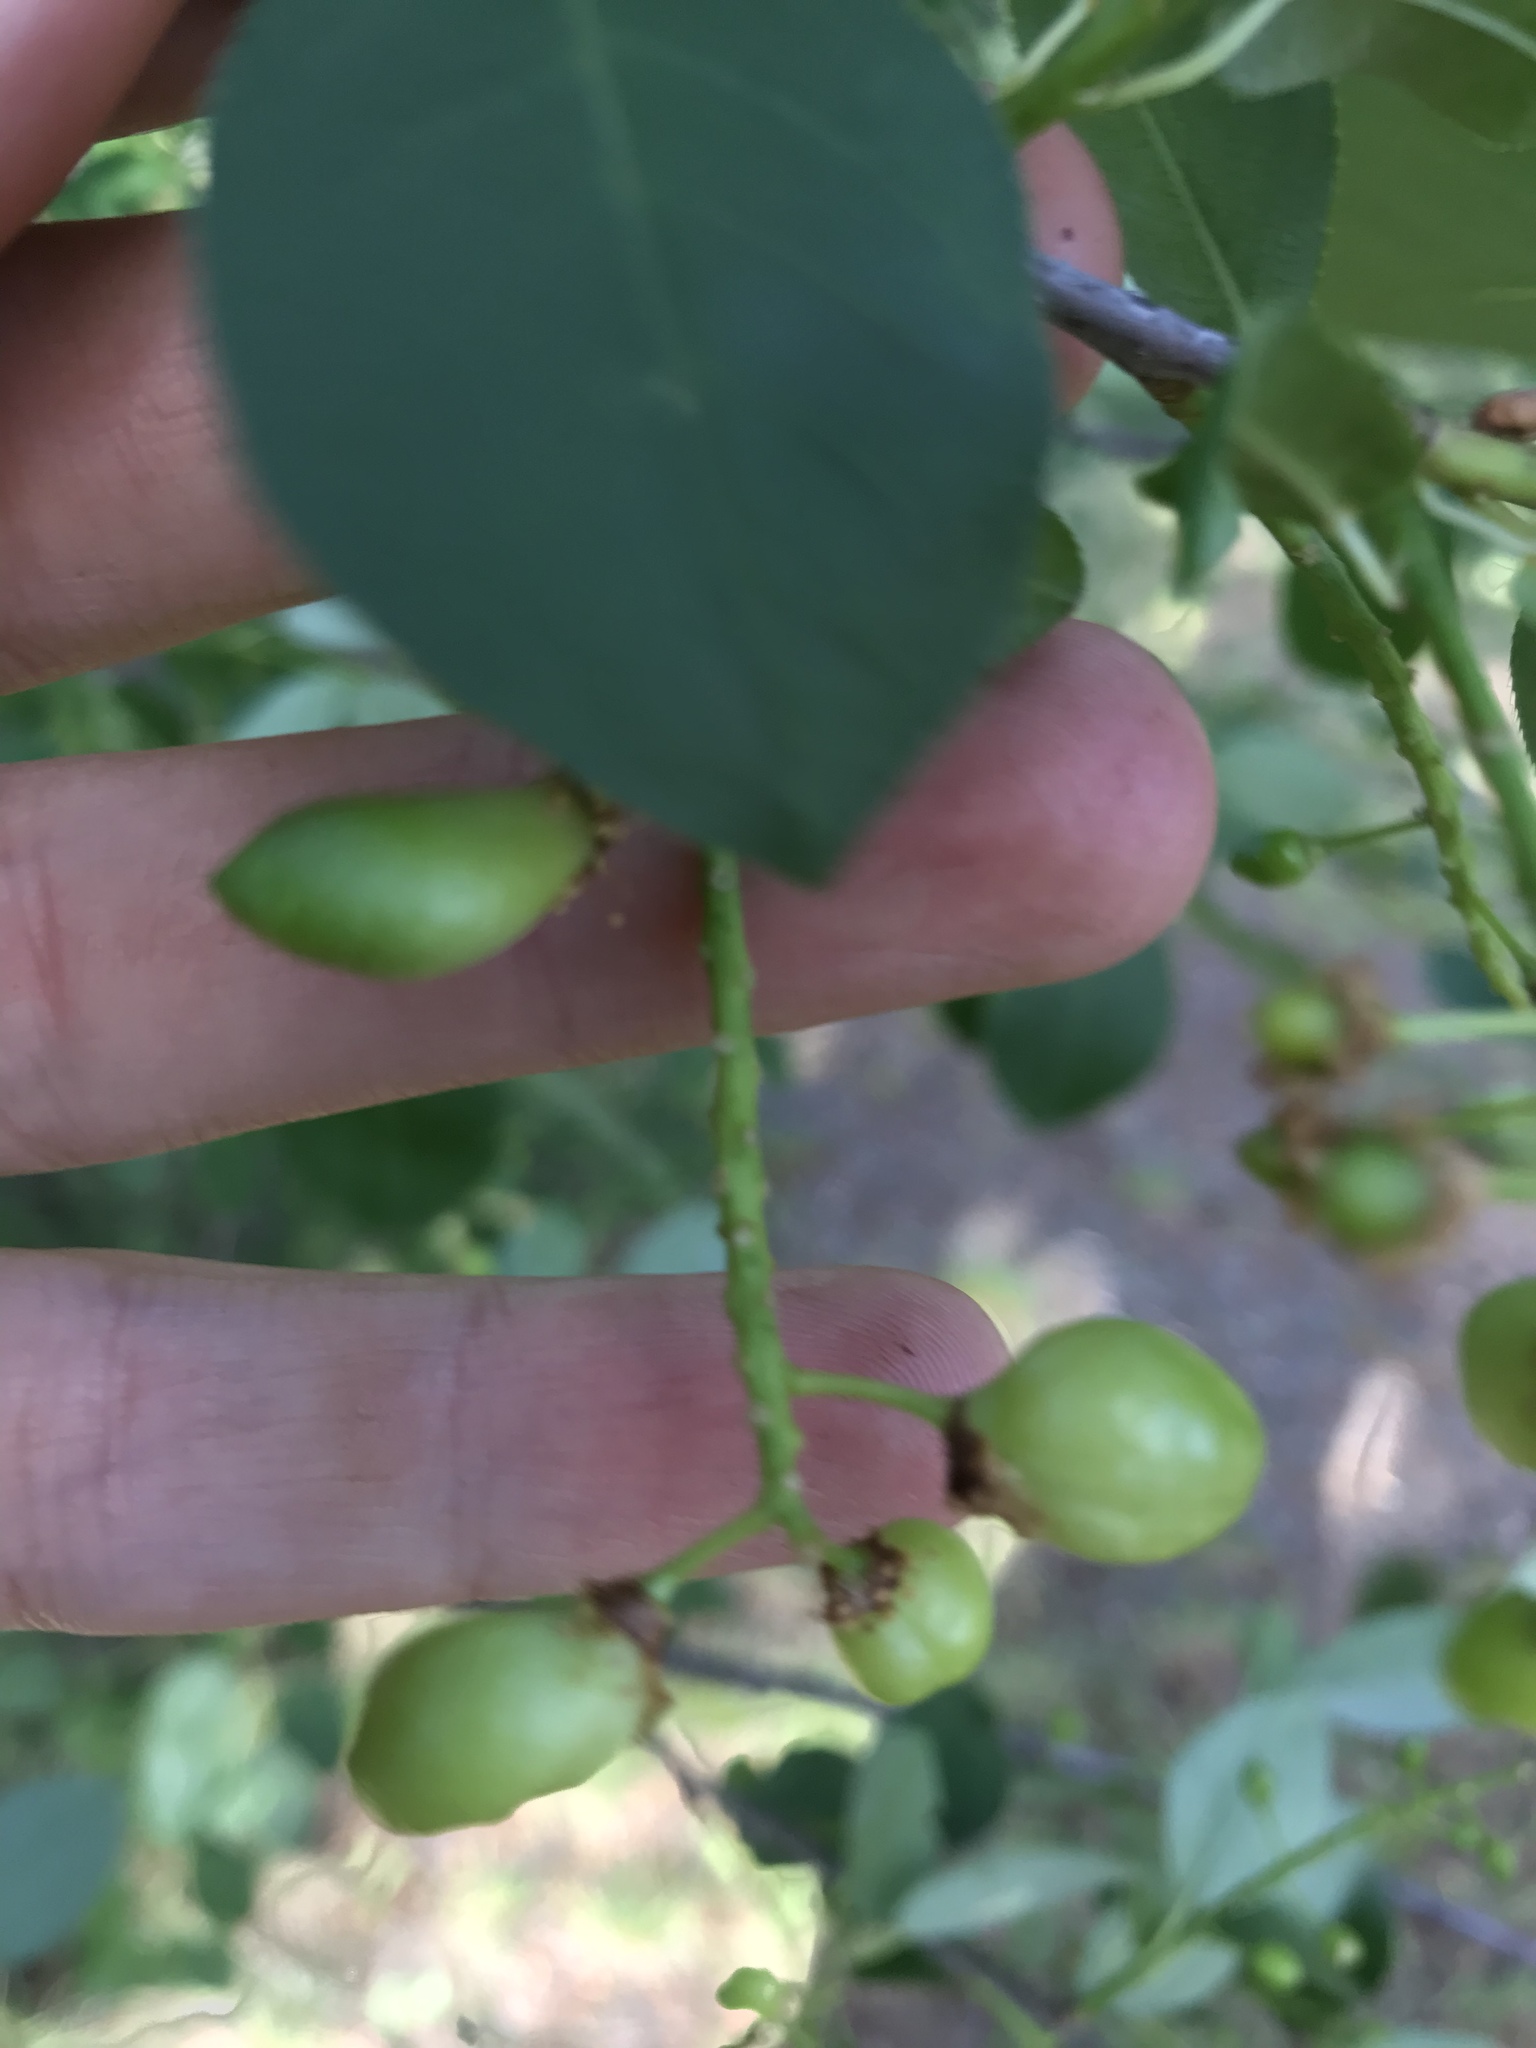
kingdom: Plantae
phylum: Tracheophyta
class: Magnoliopsida
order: Rosales
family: Rosaceae
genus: Prunus
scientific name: Prunus virginiana
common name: Chokecherry
